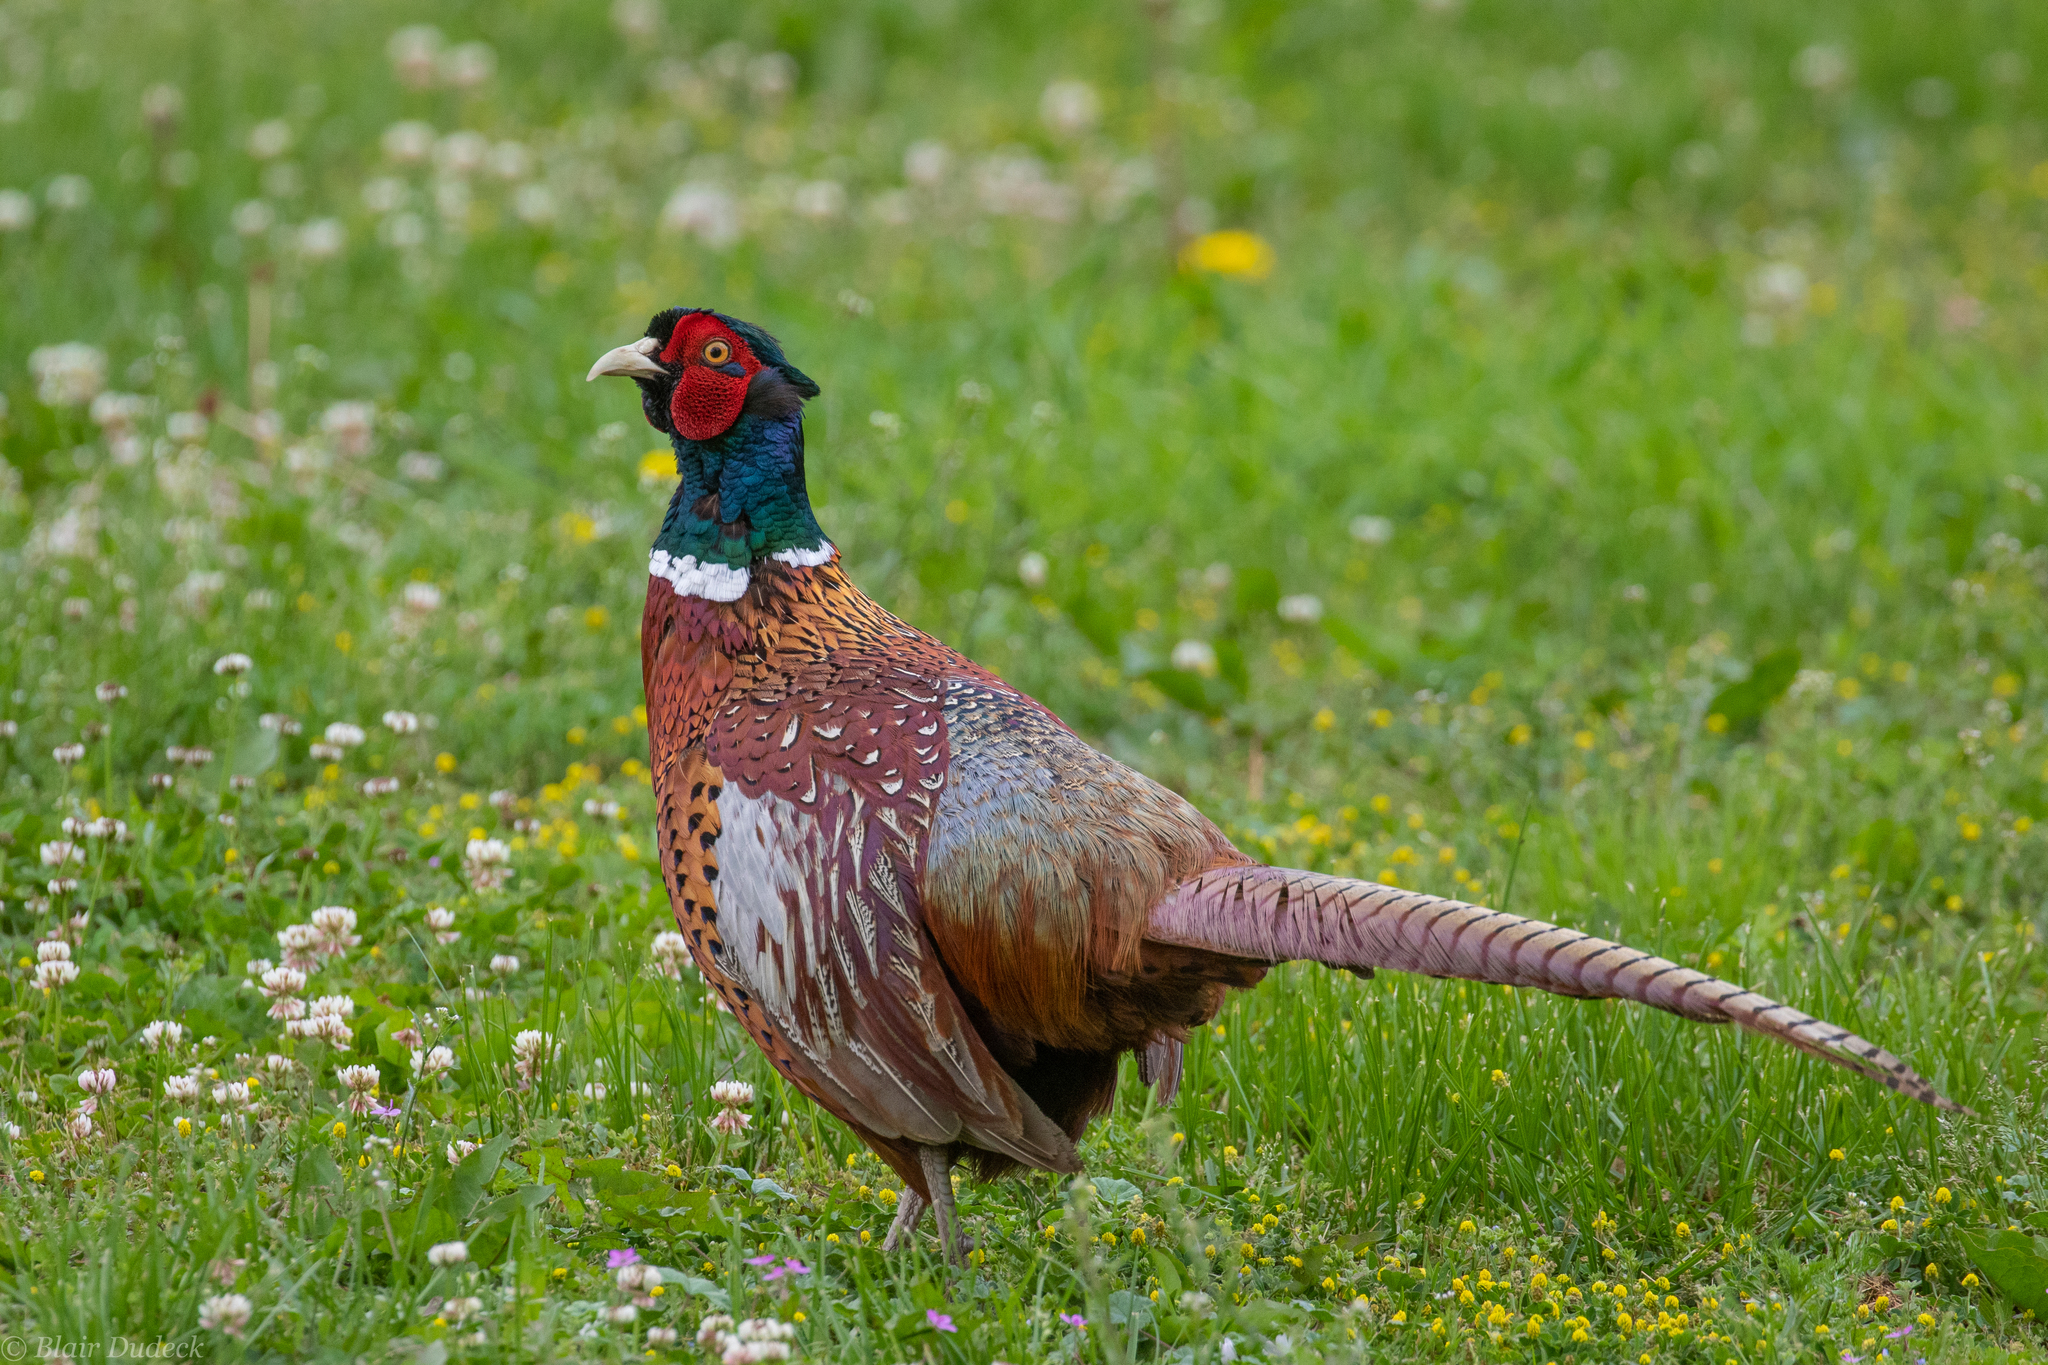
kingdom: Animalia
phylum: Chordata
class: Aves
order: Galliformes
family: Phasianidae
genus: Phasianus
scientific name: Phasianus colchicus
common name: Common pheasant
